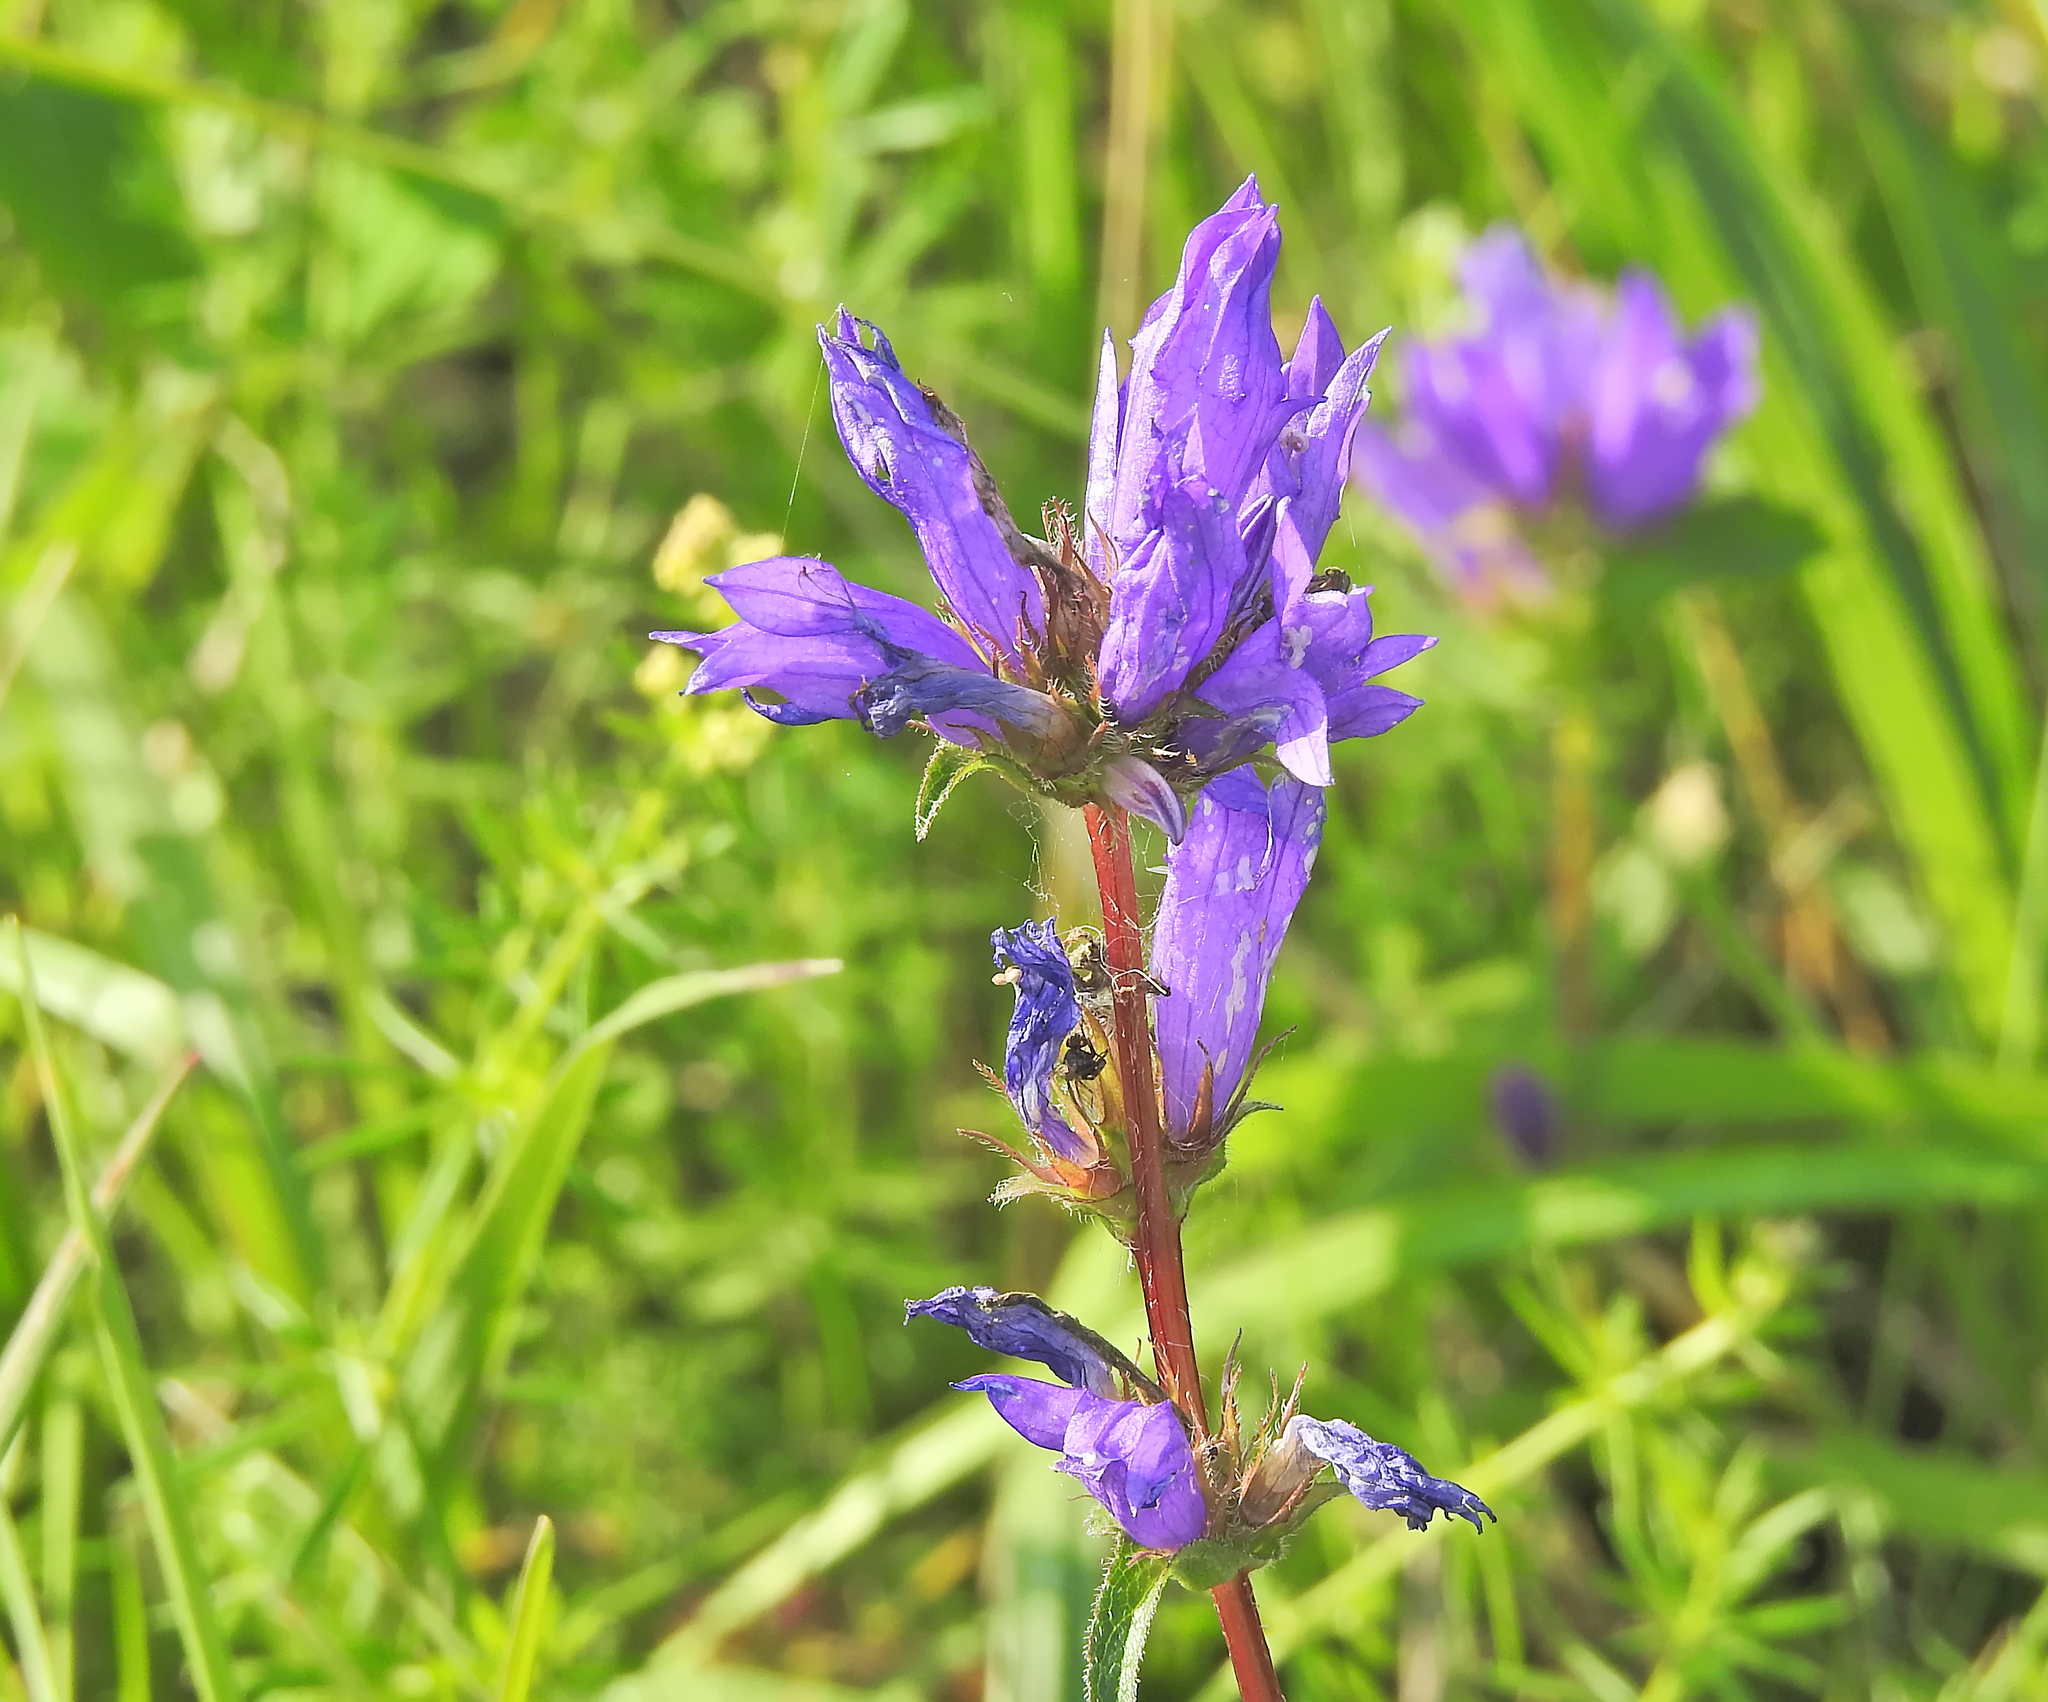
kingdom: Plantae
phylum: Tracheophyta
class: Magnoliopsida
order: Asterales
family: Campanulaceae
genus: Campanula
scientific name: Campanula glomerata
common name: Clustered bellflower
